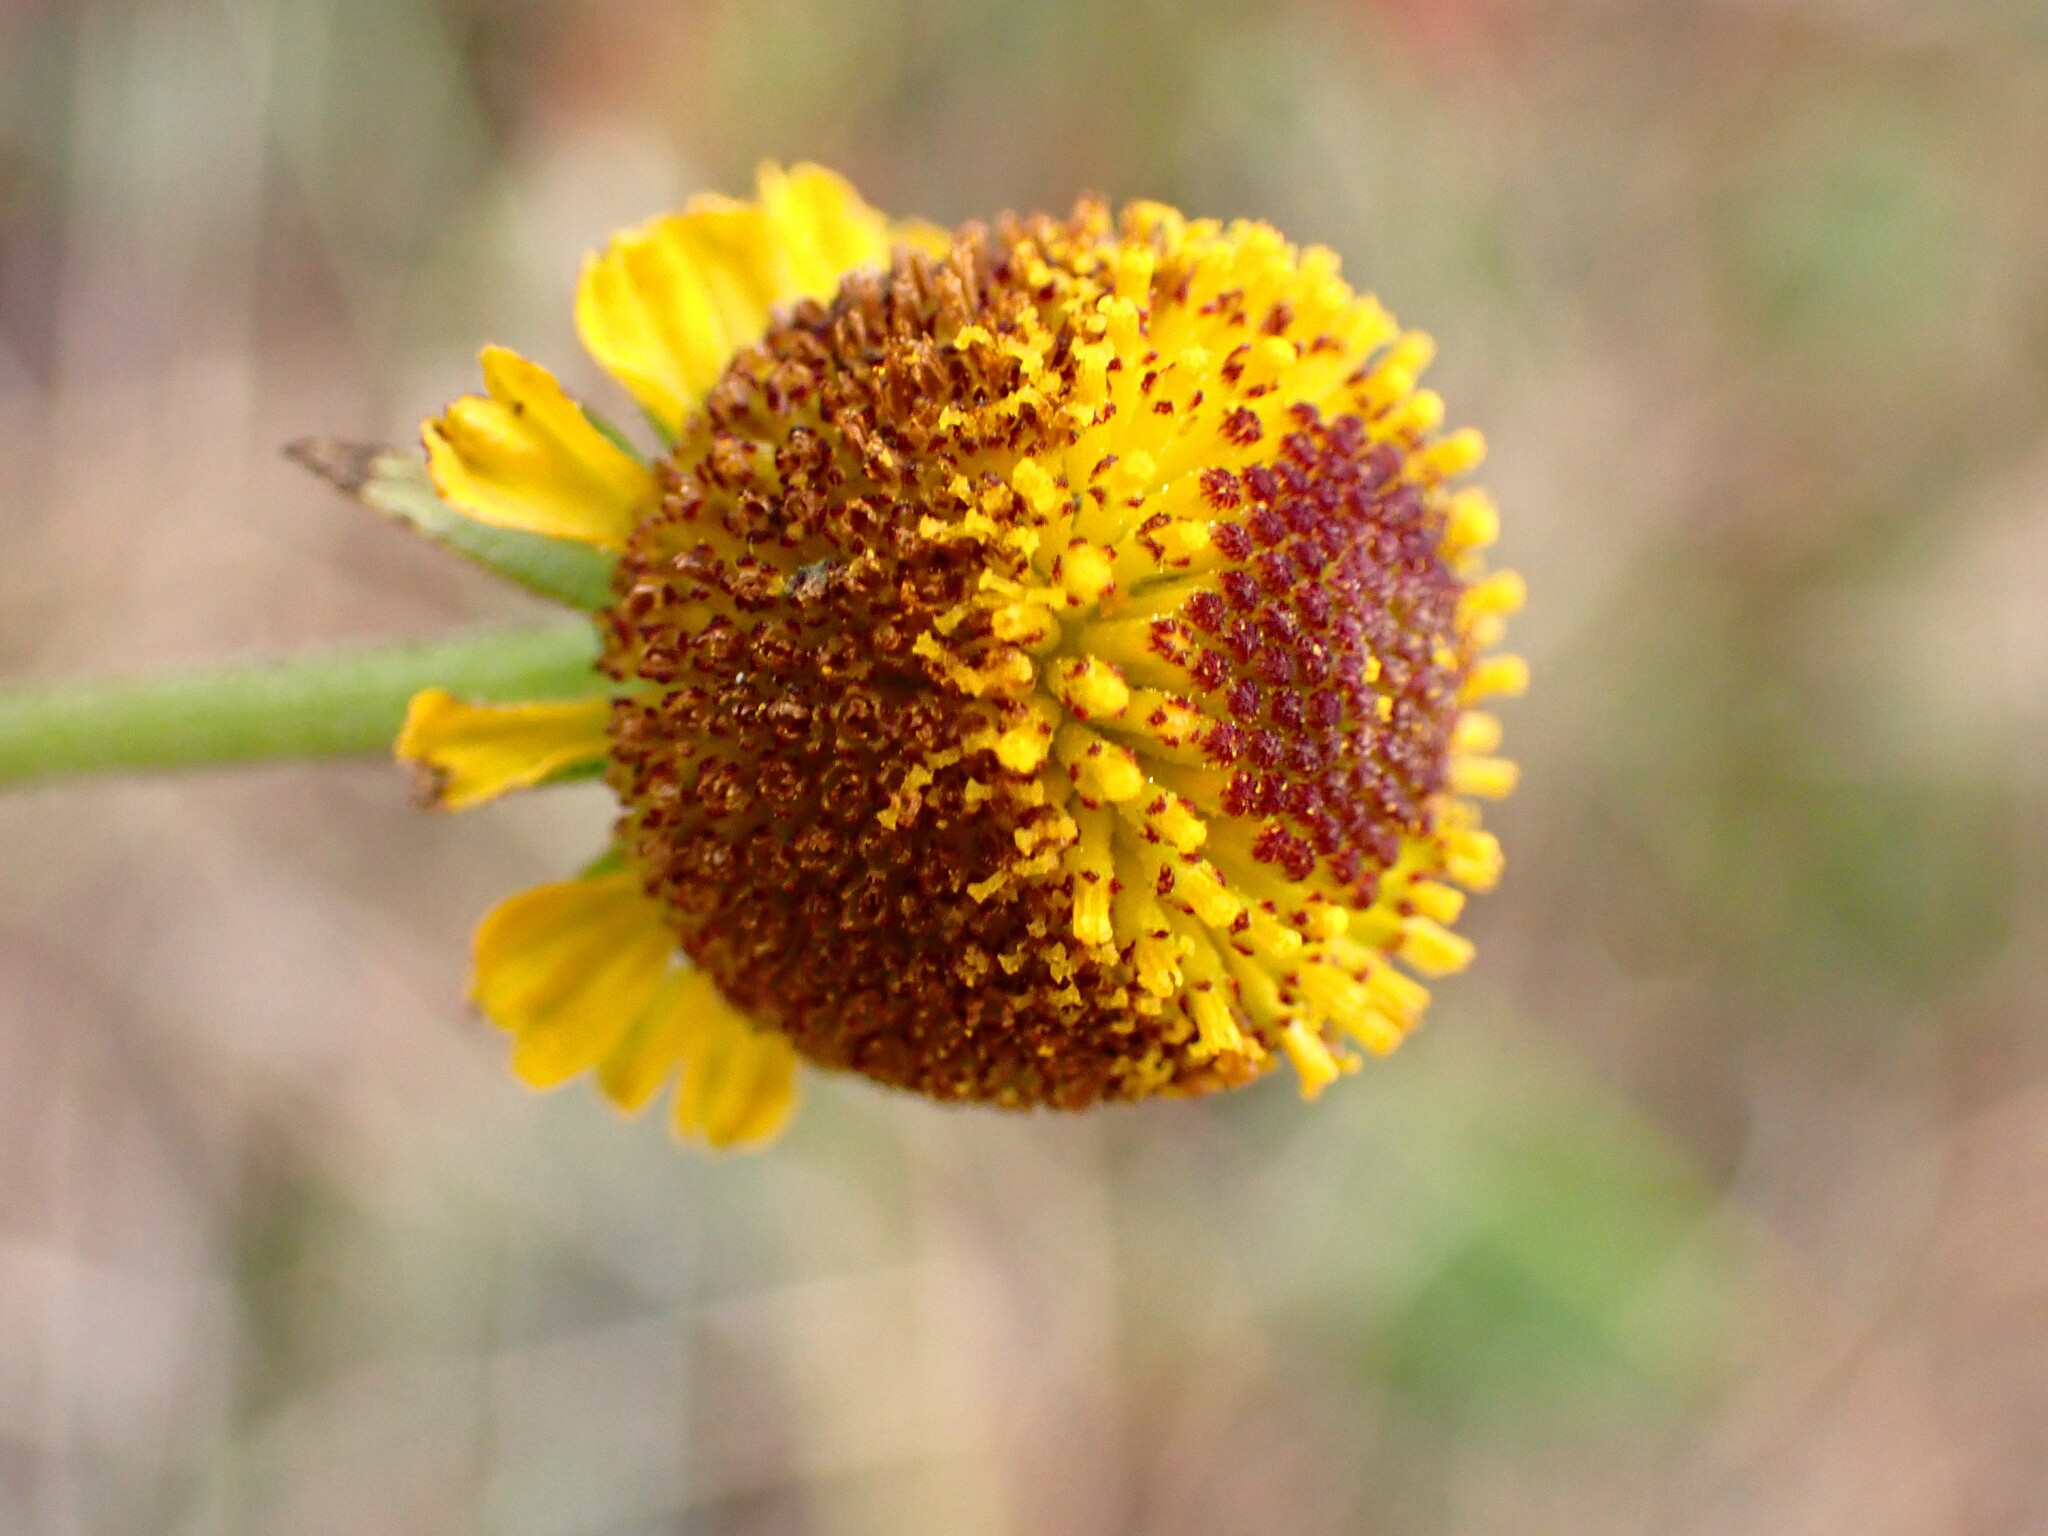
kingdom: Plantae
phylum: Tracheophyta
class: Magnoliopsida
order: Asterales
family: Asteraceae
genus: Helenium
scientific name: Helenium puberulum
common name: Sneezewort
